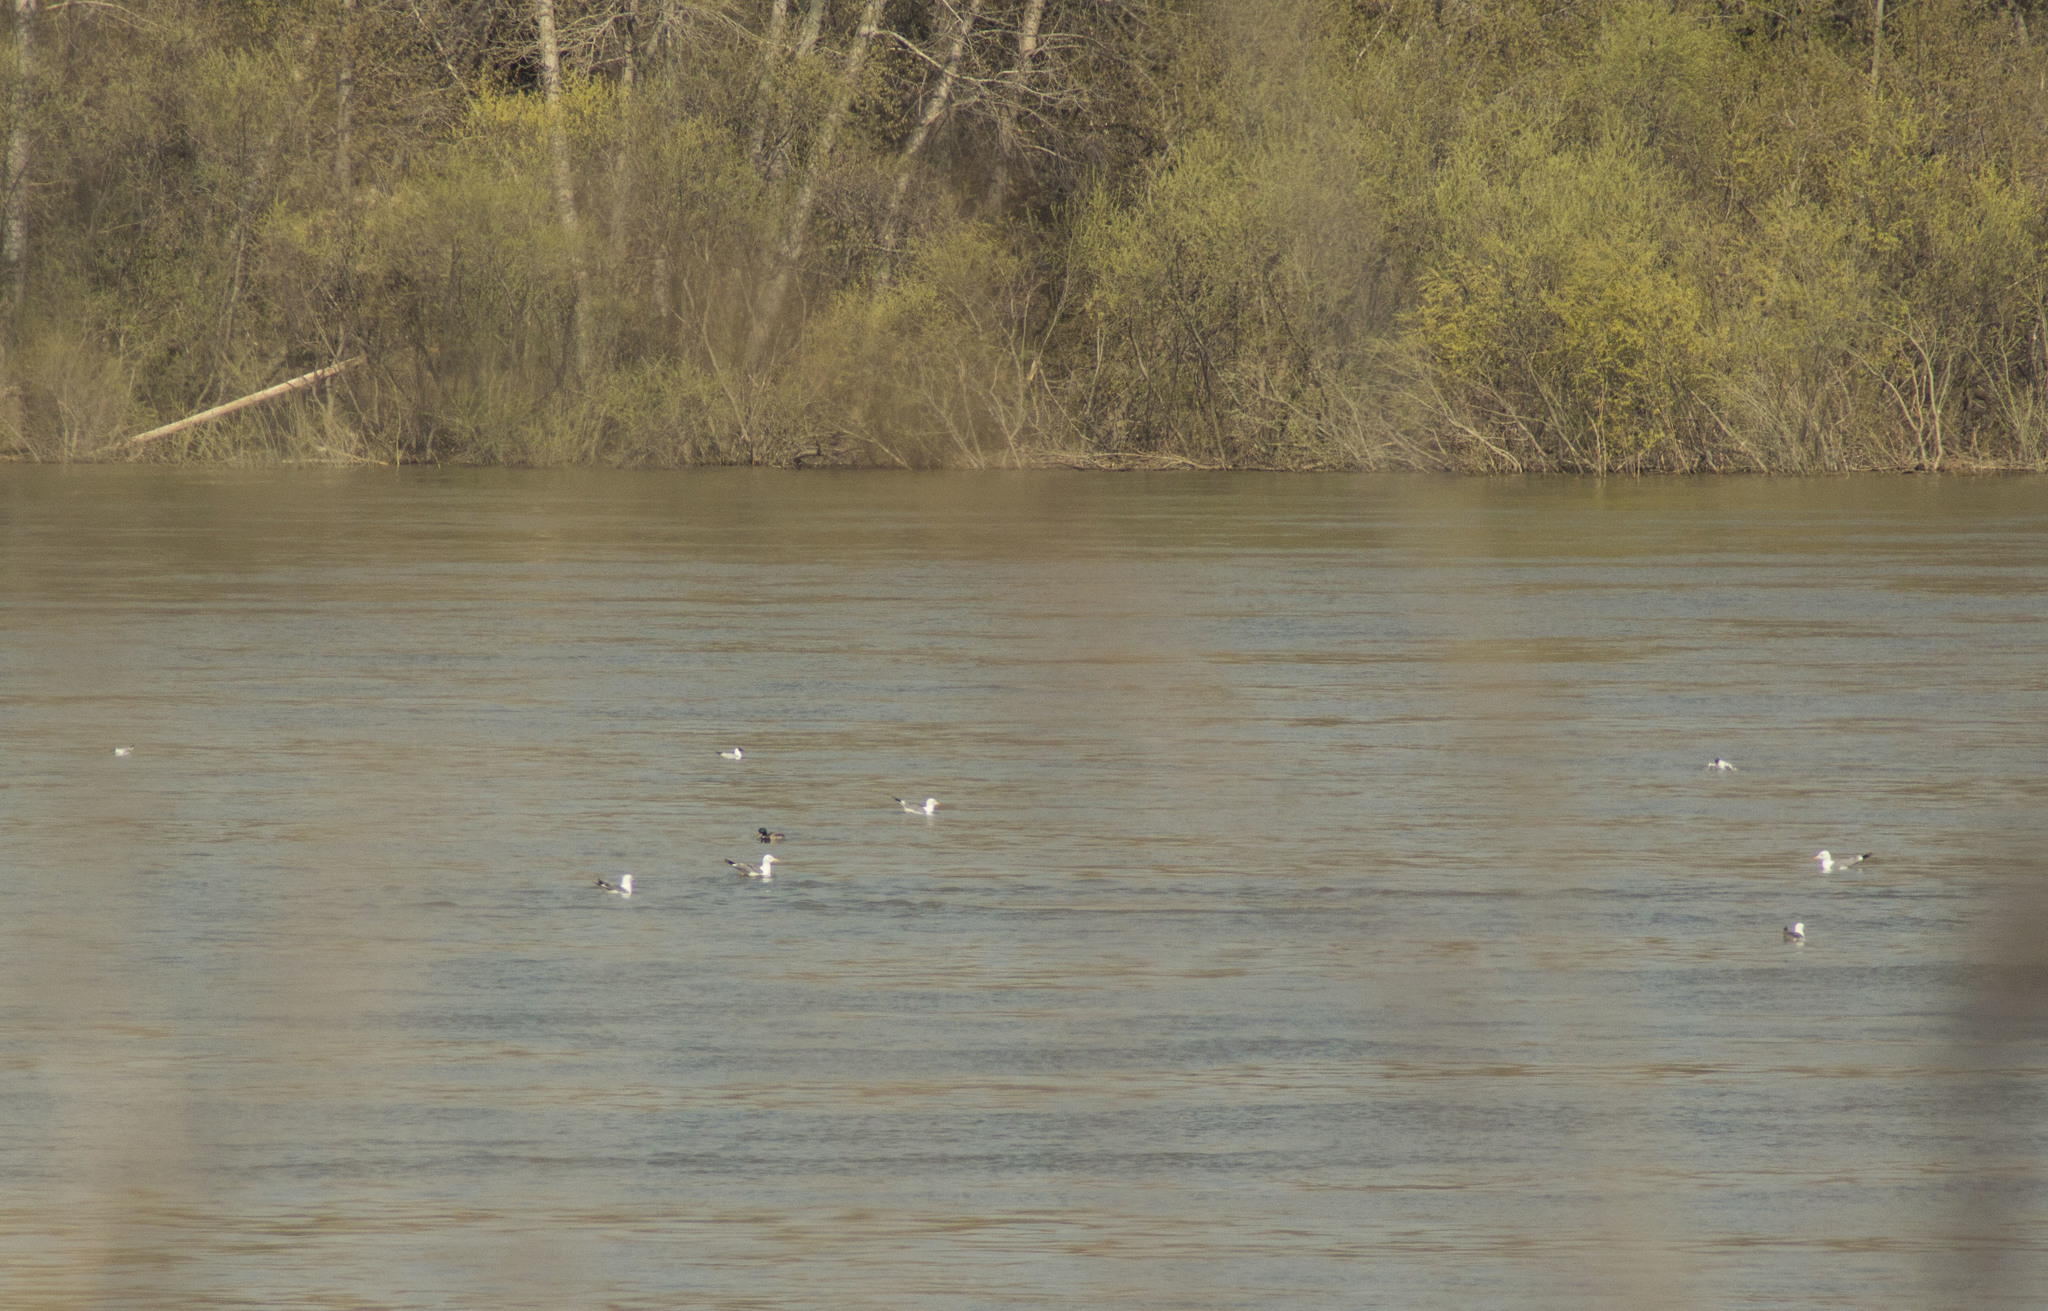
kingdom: Animalia
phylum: Chordata
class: Aves
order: Charadriiformes
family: Laridae
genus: Chroicocephalus
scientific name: Chroicocephalus ridibundus
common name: Black-headed gull
